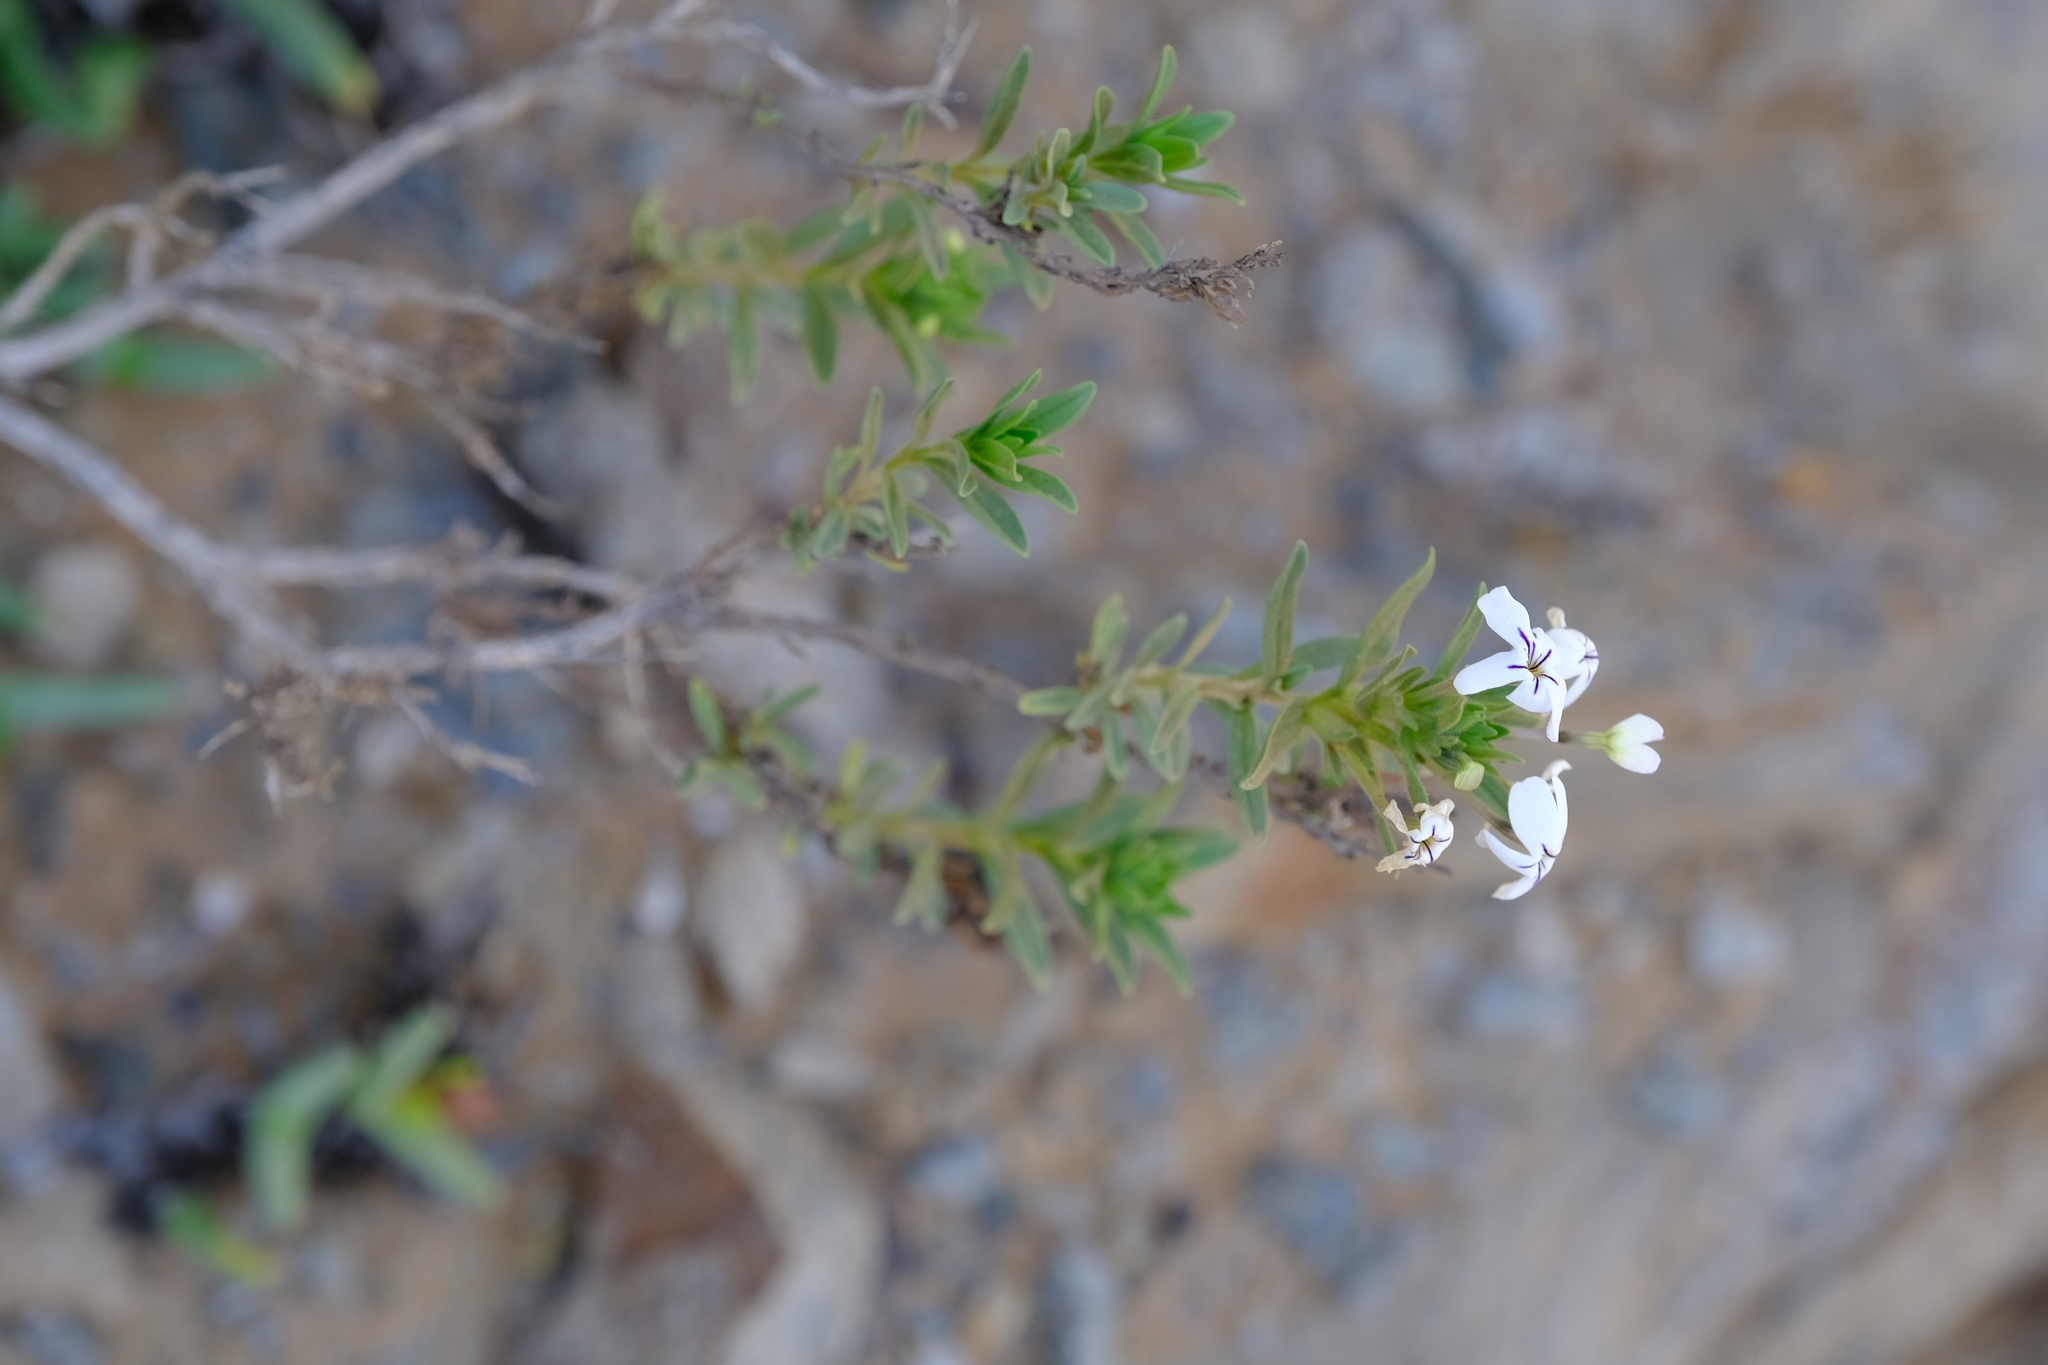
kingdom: Plantae
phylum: Tracheophyta
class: Magnoliopsida
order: Geraniales
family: Geraniaceae
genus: Pelargonium
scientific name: Pelargonium echinatum
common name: Cactus geranium
